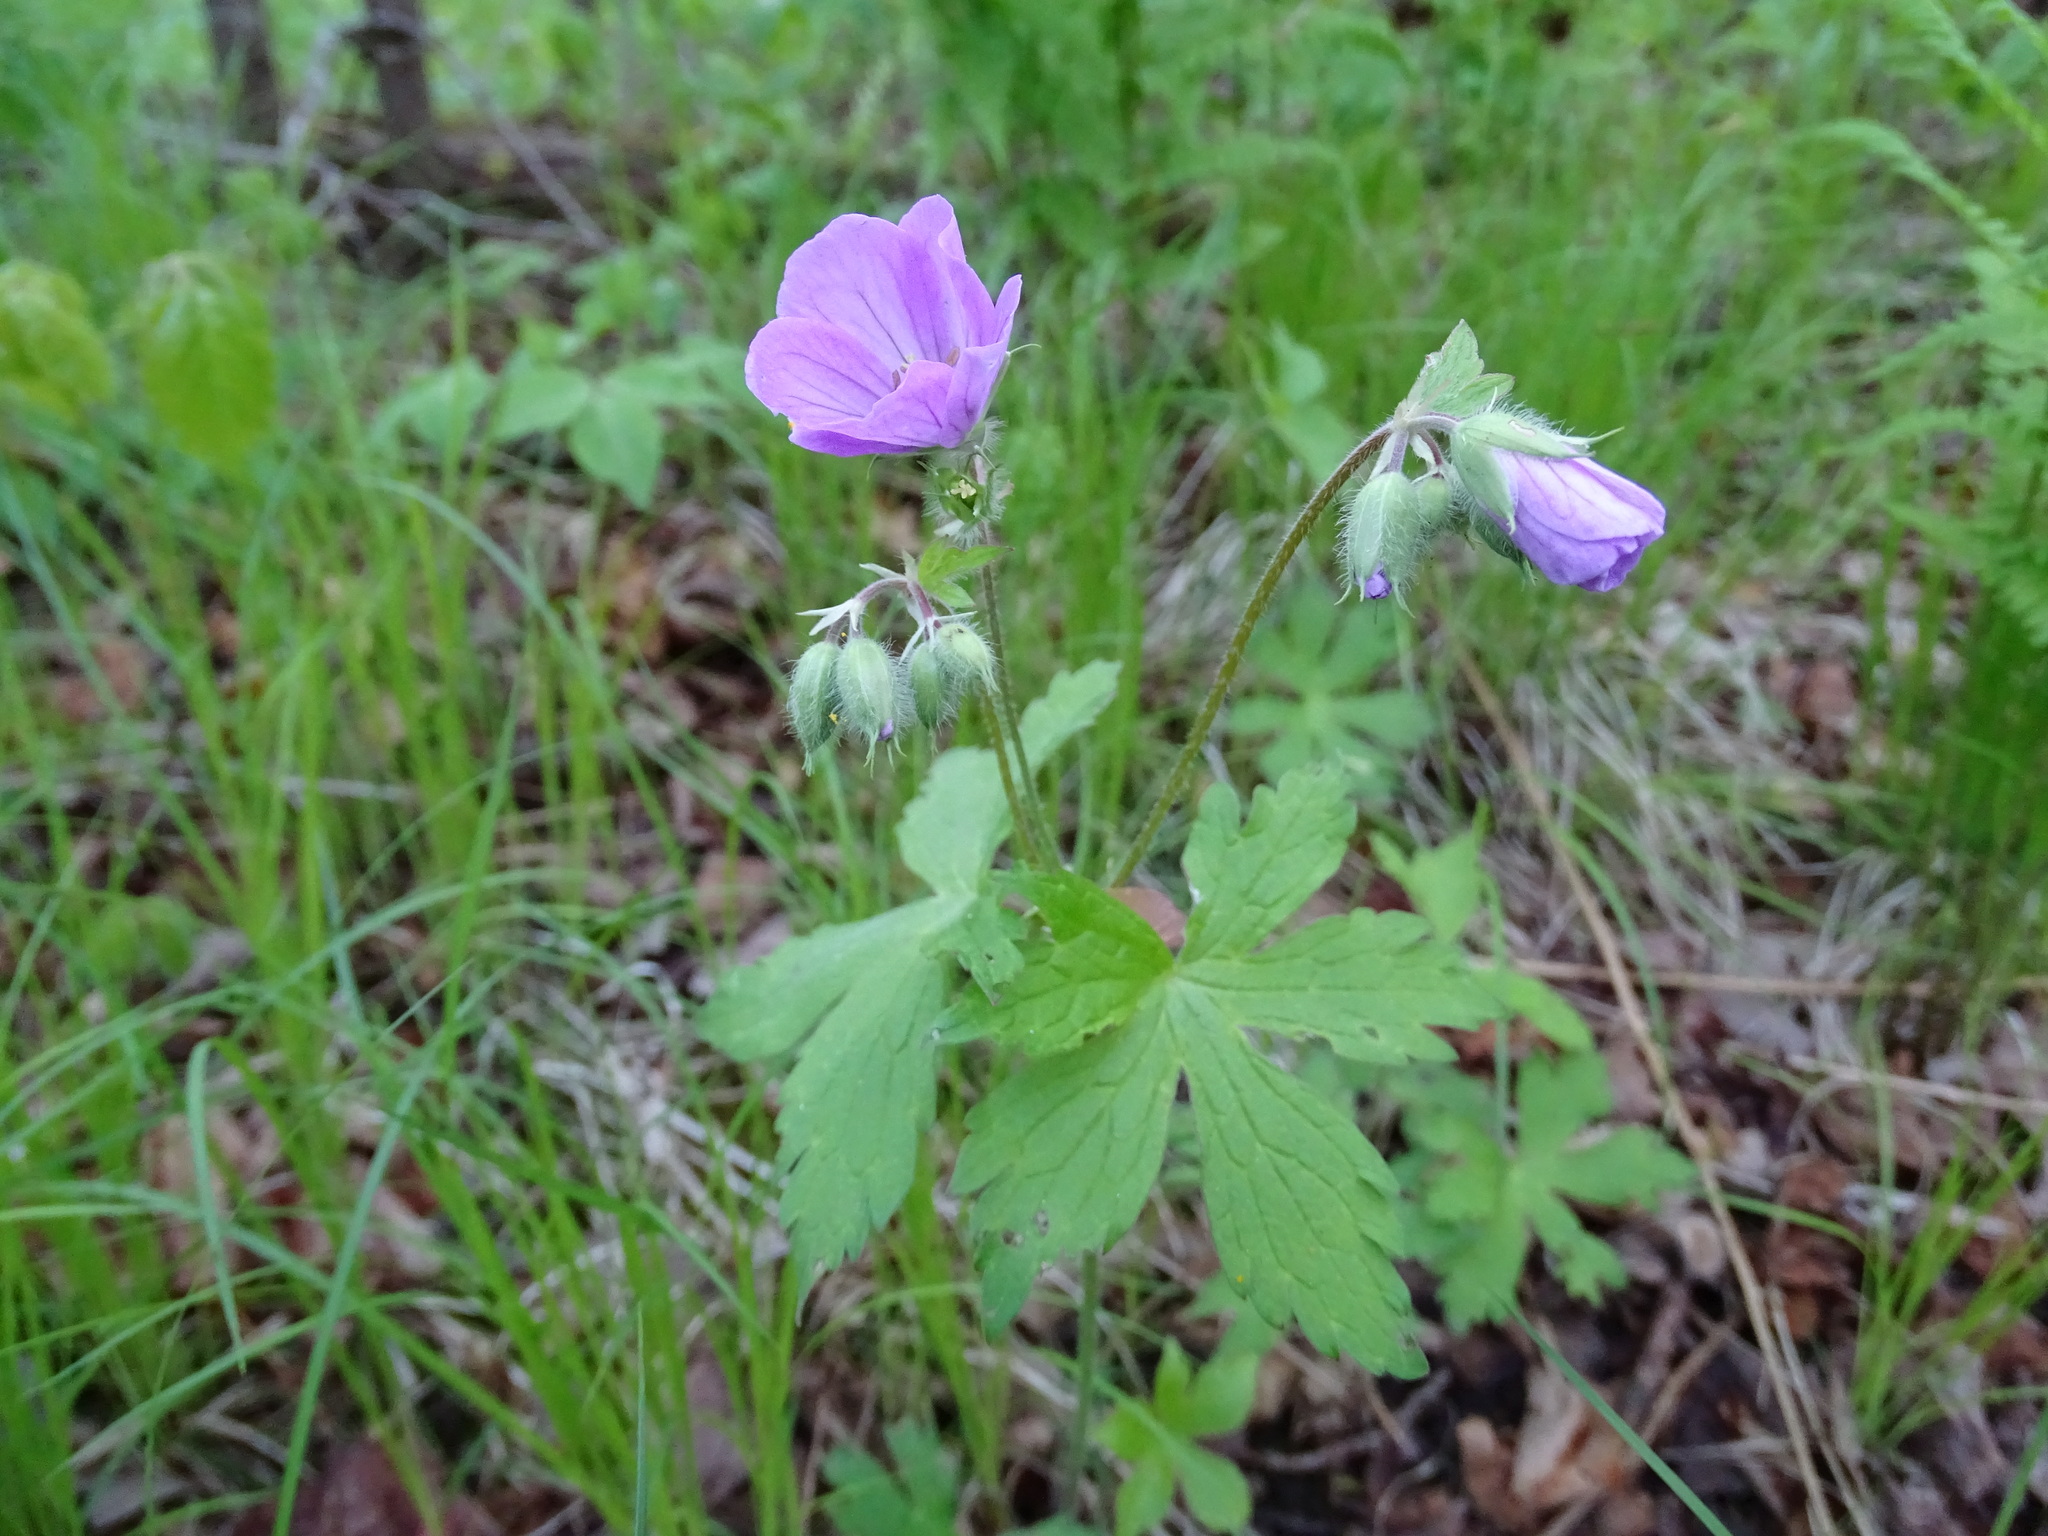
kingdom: Plantae
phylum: Tracheophyta
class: Magnoliopsida
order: Geraniales
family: Geraniaceae
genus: Geranium
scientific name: Geranium maculatum
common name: Spotted geranium
